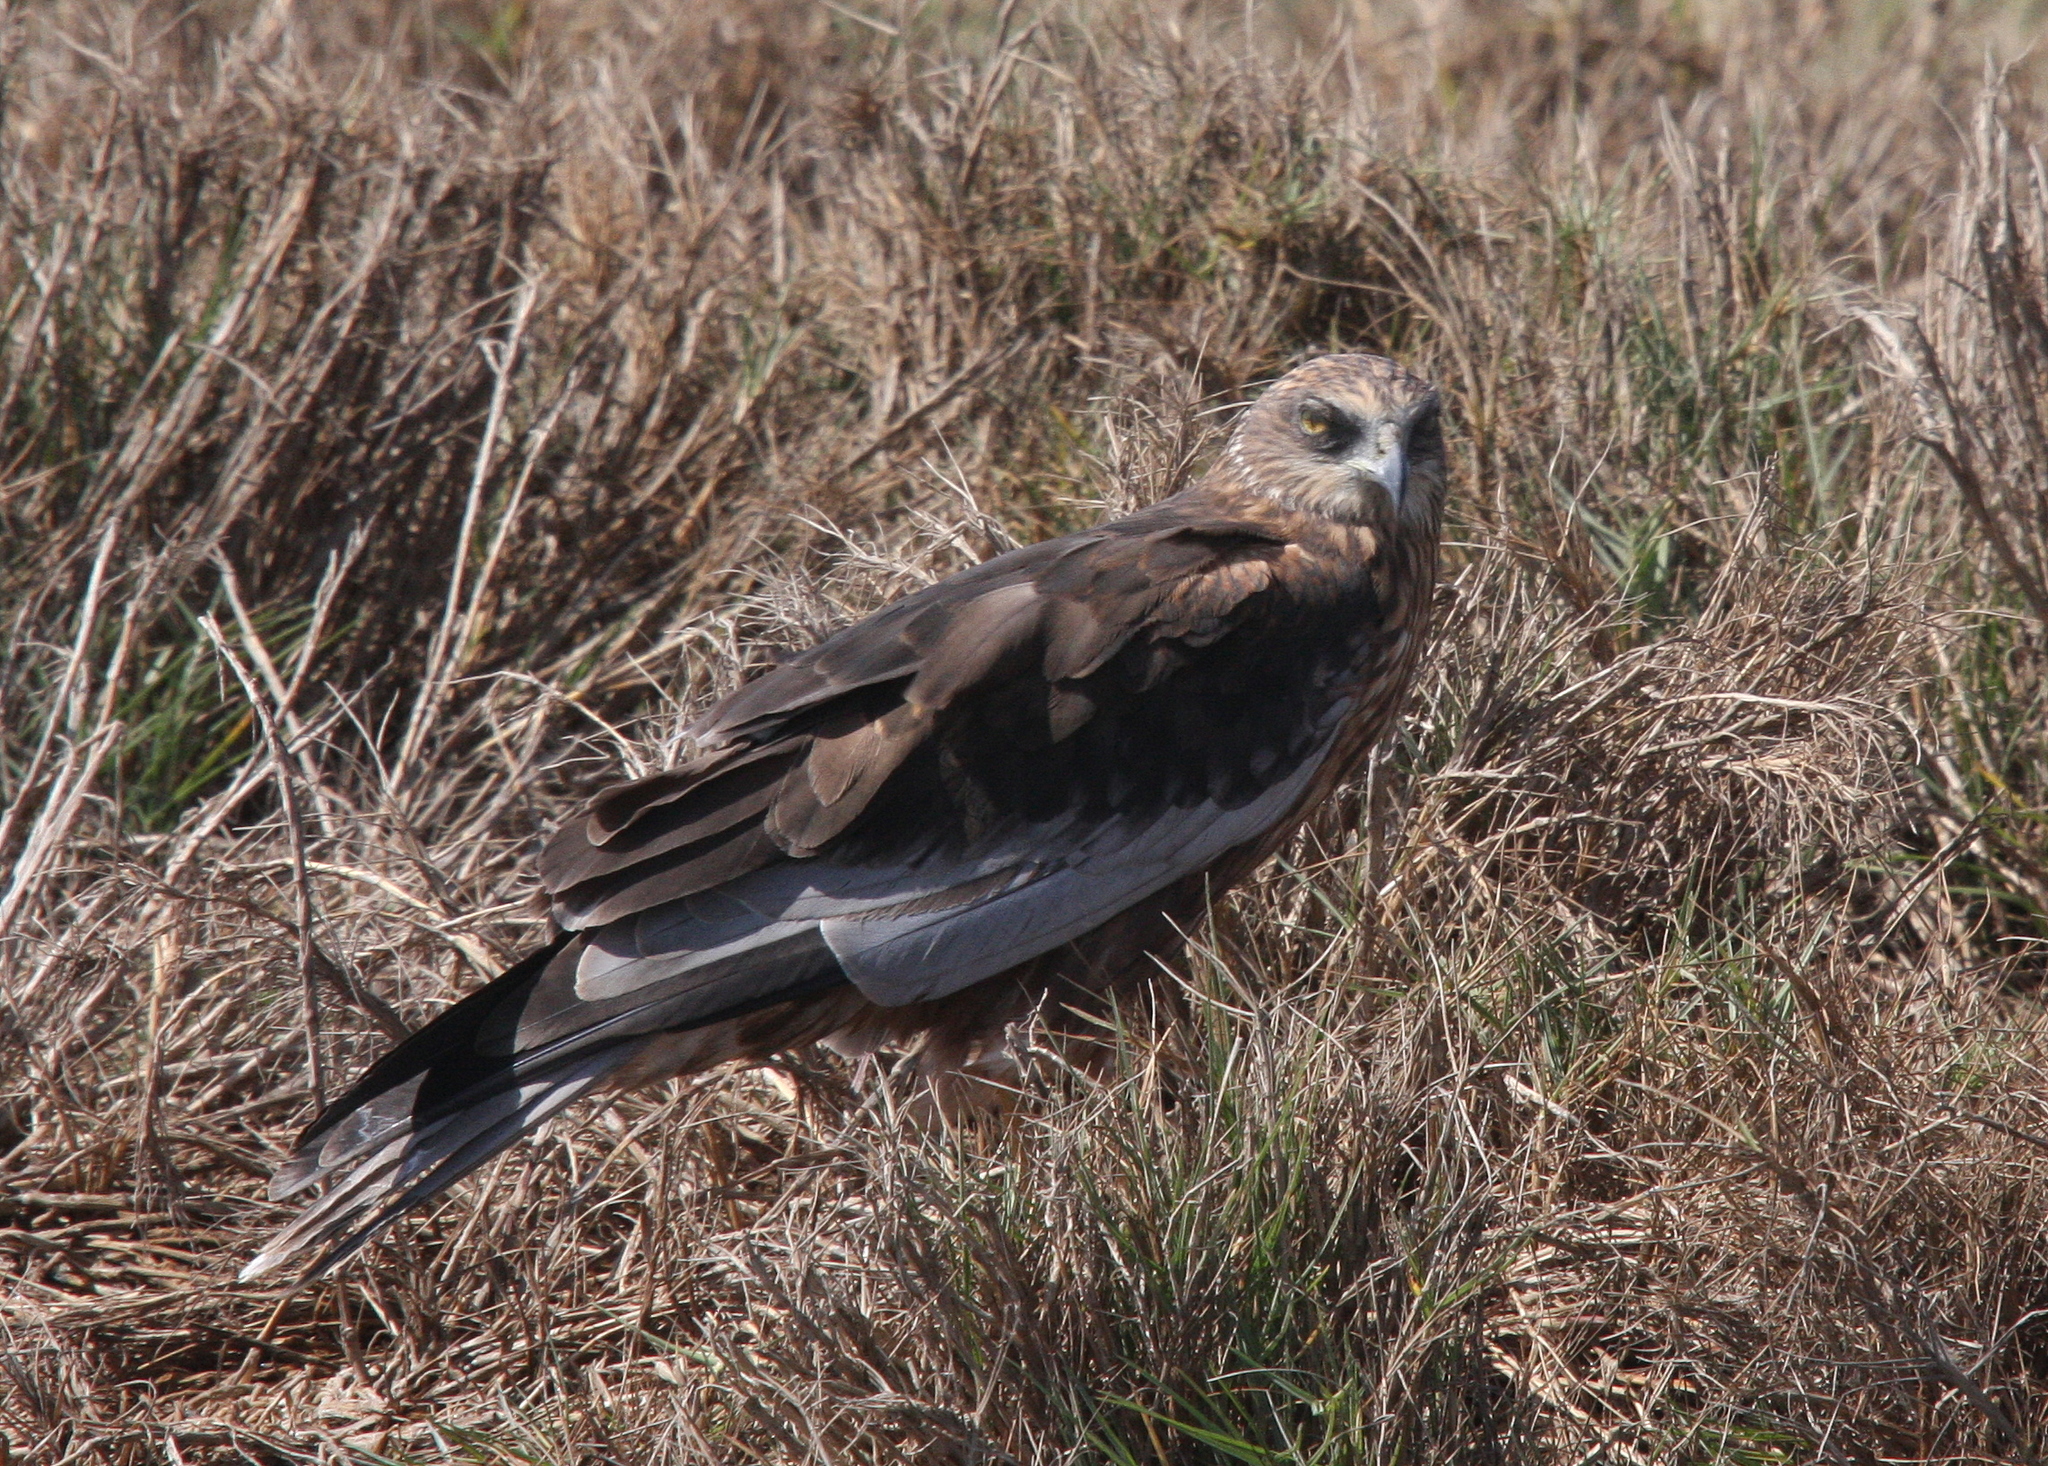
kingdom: Animalia
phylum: Chordata
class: Aves
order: Accipitriformes
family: Accipitridae
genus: Circus
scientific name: Circus aeruginosus
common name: Western marsh harrier
